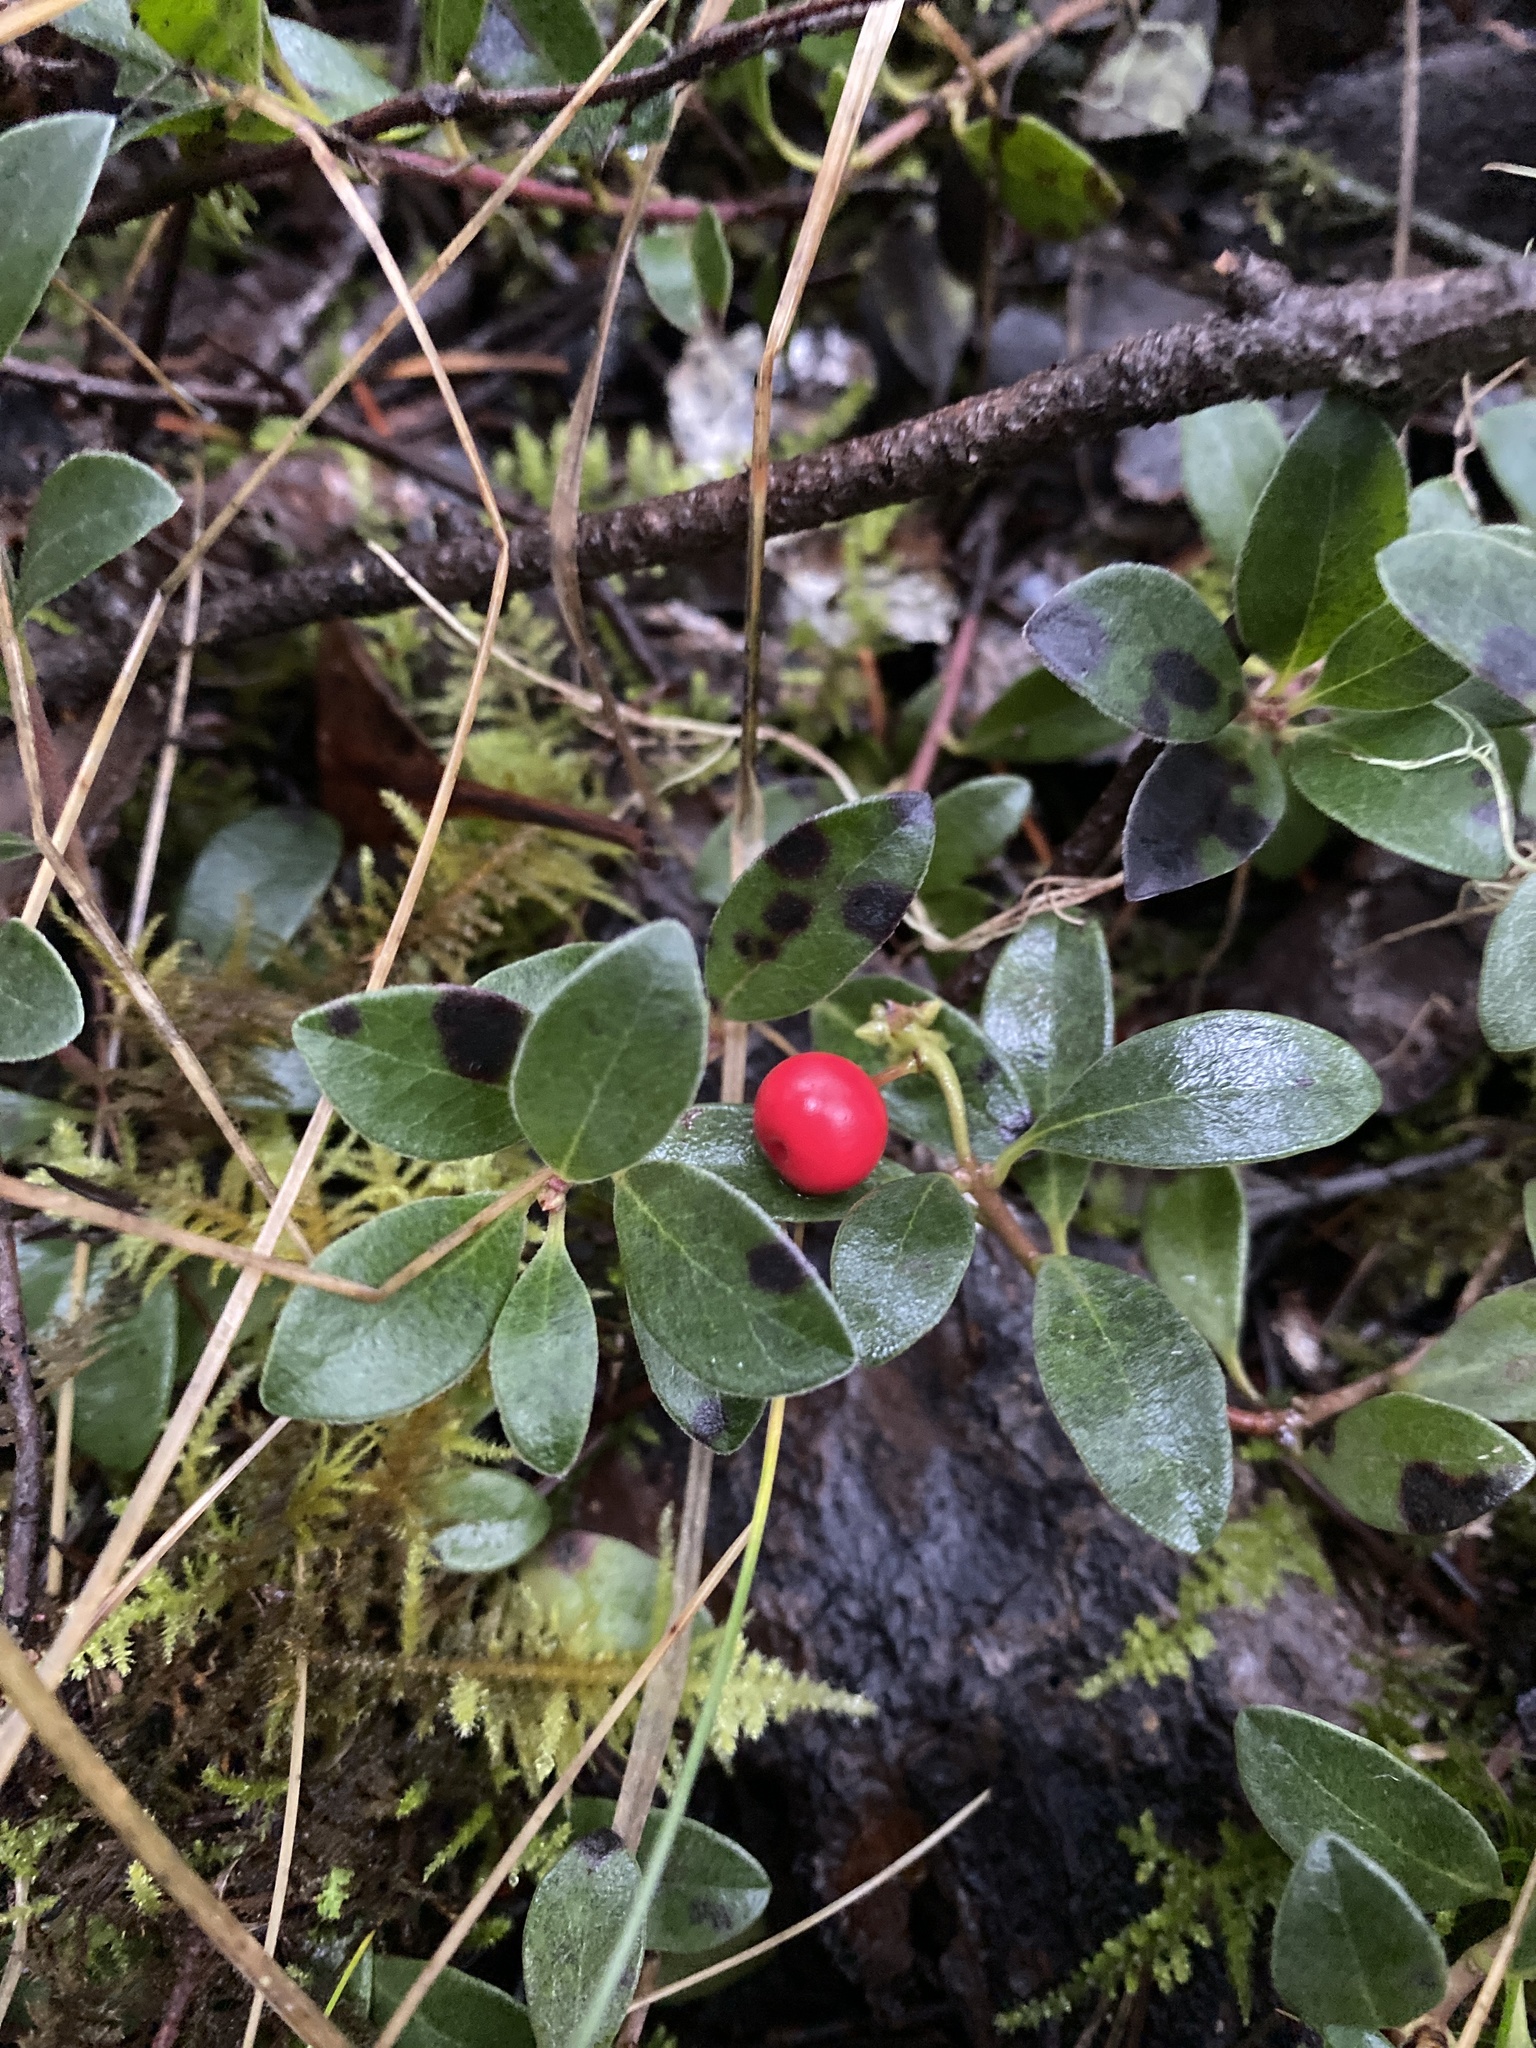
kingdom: Plantae
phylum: Tracheophyta
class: Magnoliopsida
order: Ericales
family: Ericaceae
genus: Arctostaphylos
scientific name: Arctostaphylos uva-ursi
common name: Bearberry
